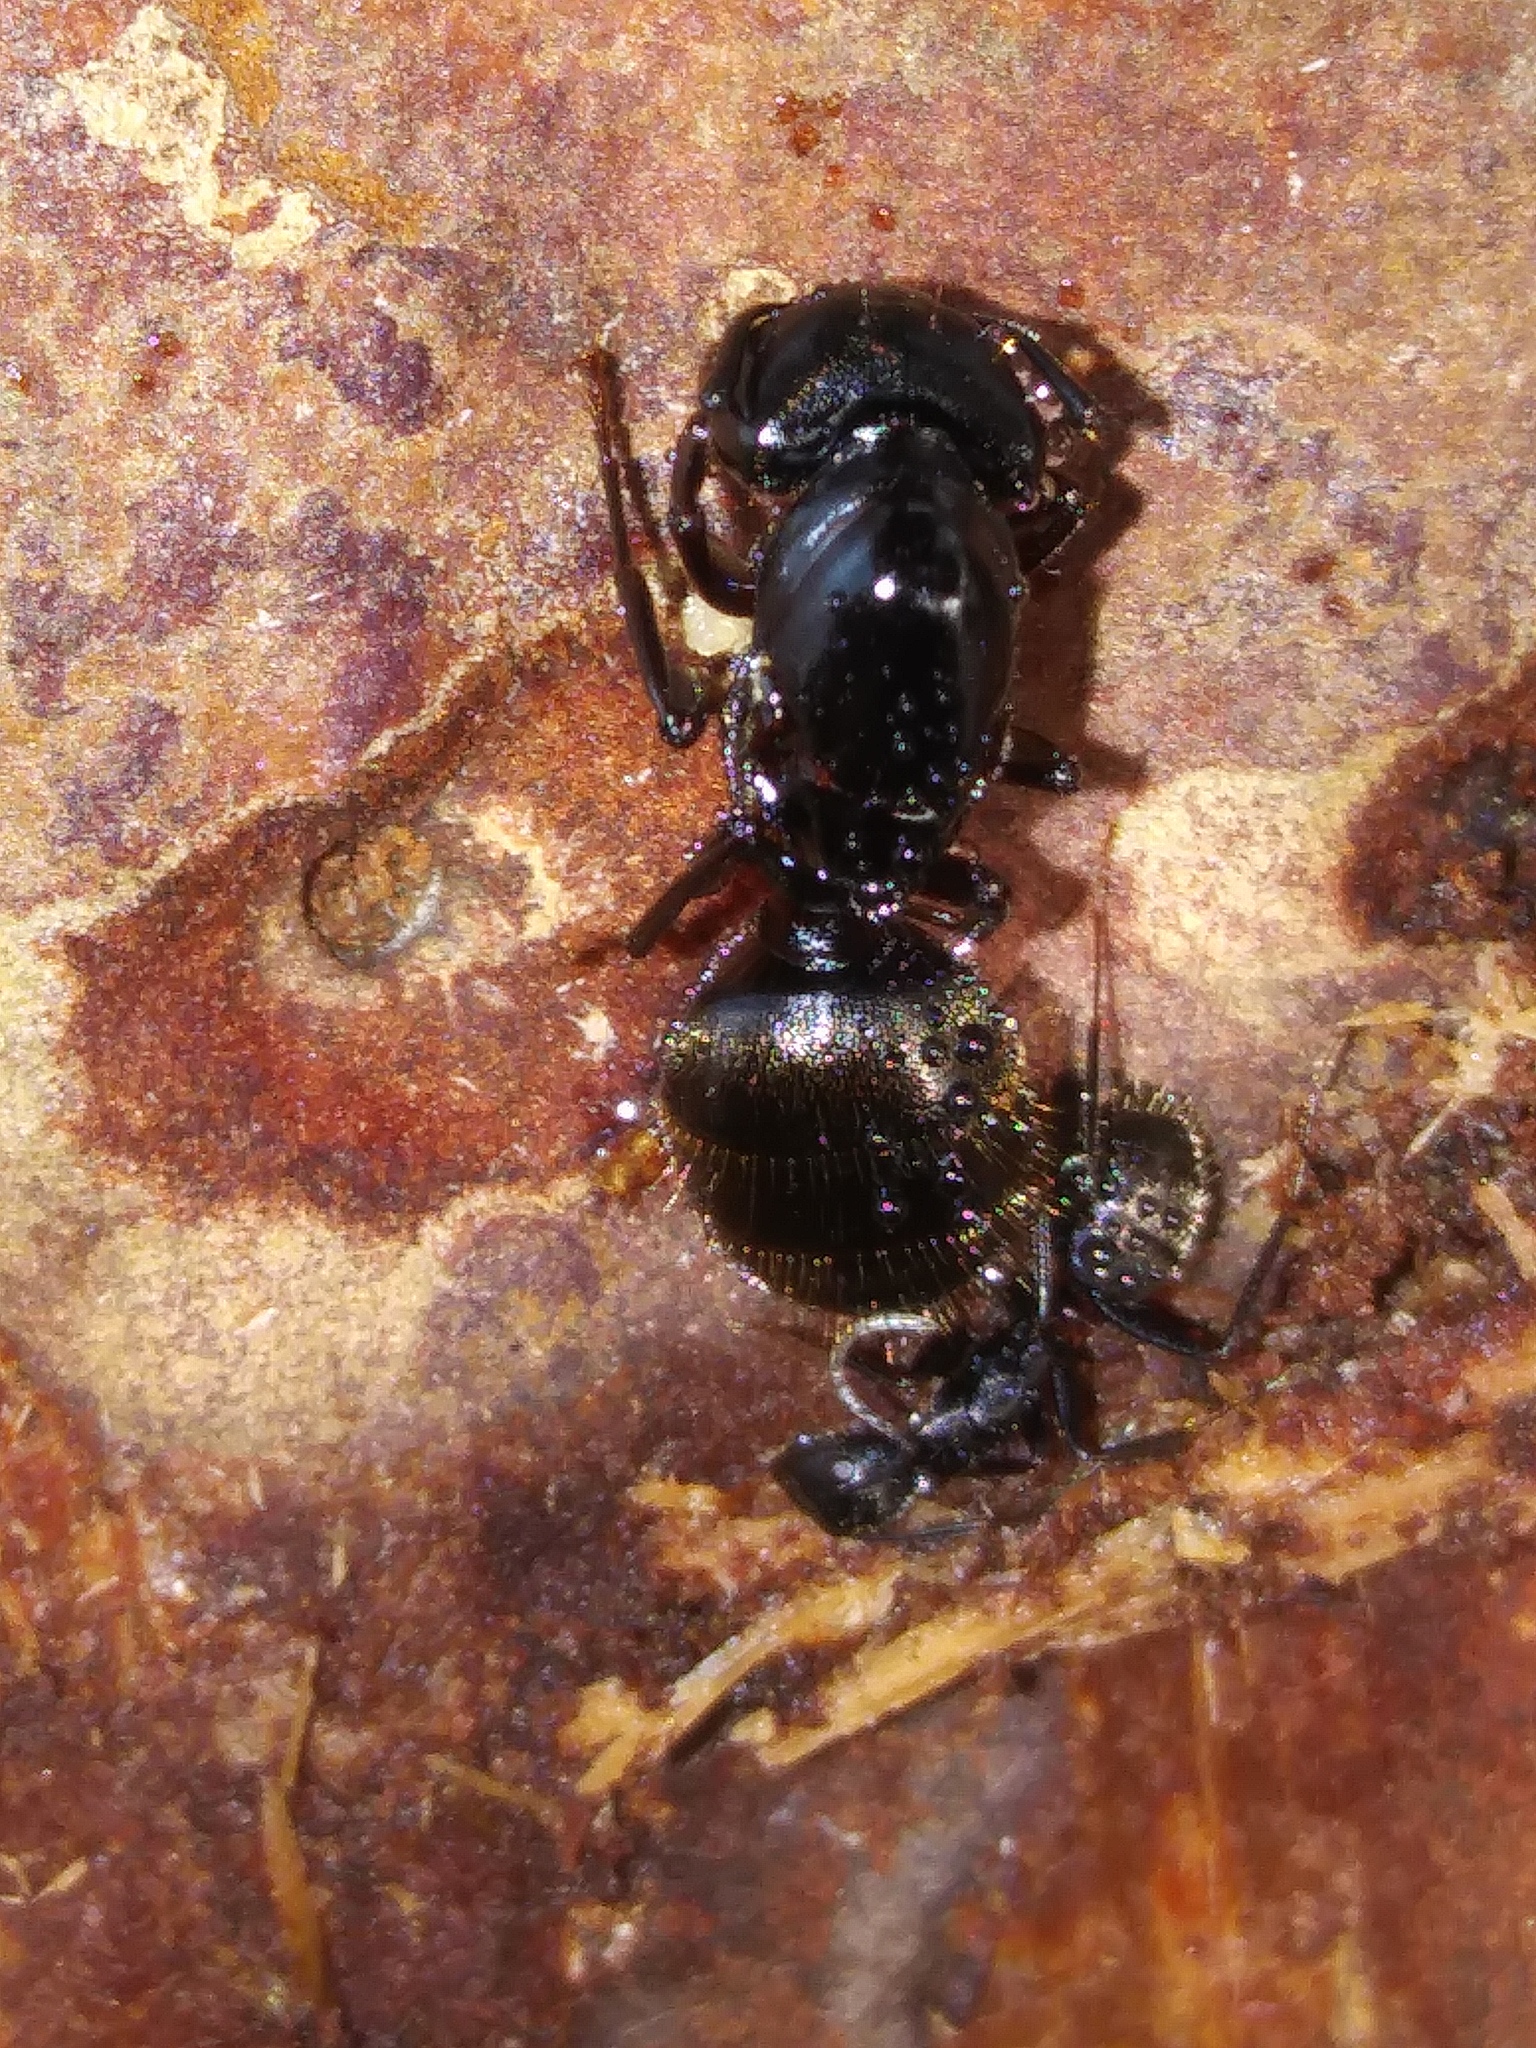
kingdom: Animalia
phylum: Arthropoda
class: Insecta
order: Hymenoptera
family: Formicidae
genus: Camponotus
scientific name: Camponotus pennsylvanicus
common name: Black carpenter ant
